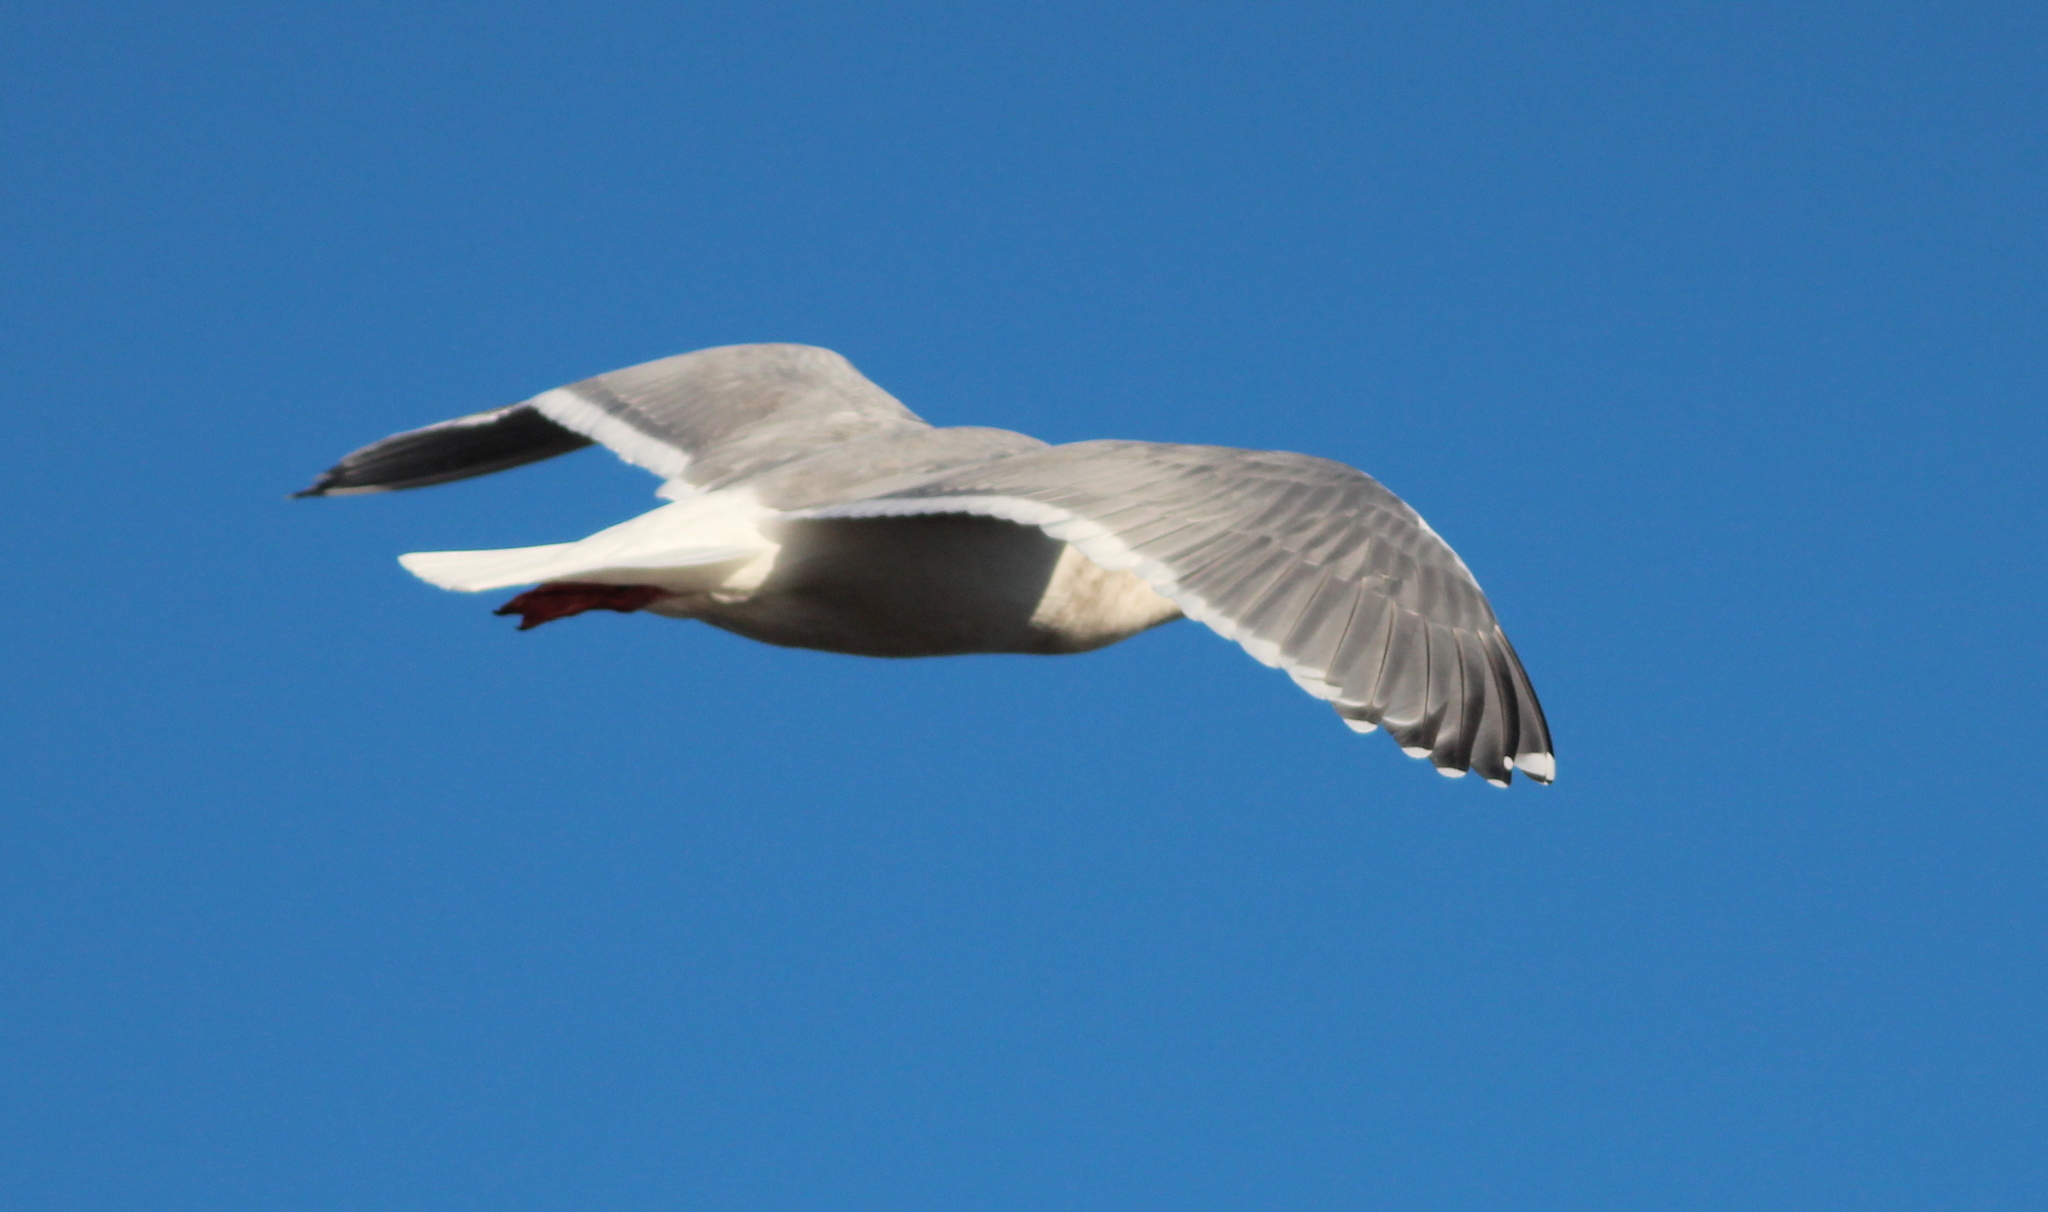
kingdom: Animalia
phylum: Chordata
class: Aves
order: Charadriiformes
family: Laridae
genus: Larus
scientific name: Larus
